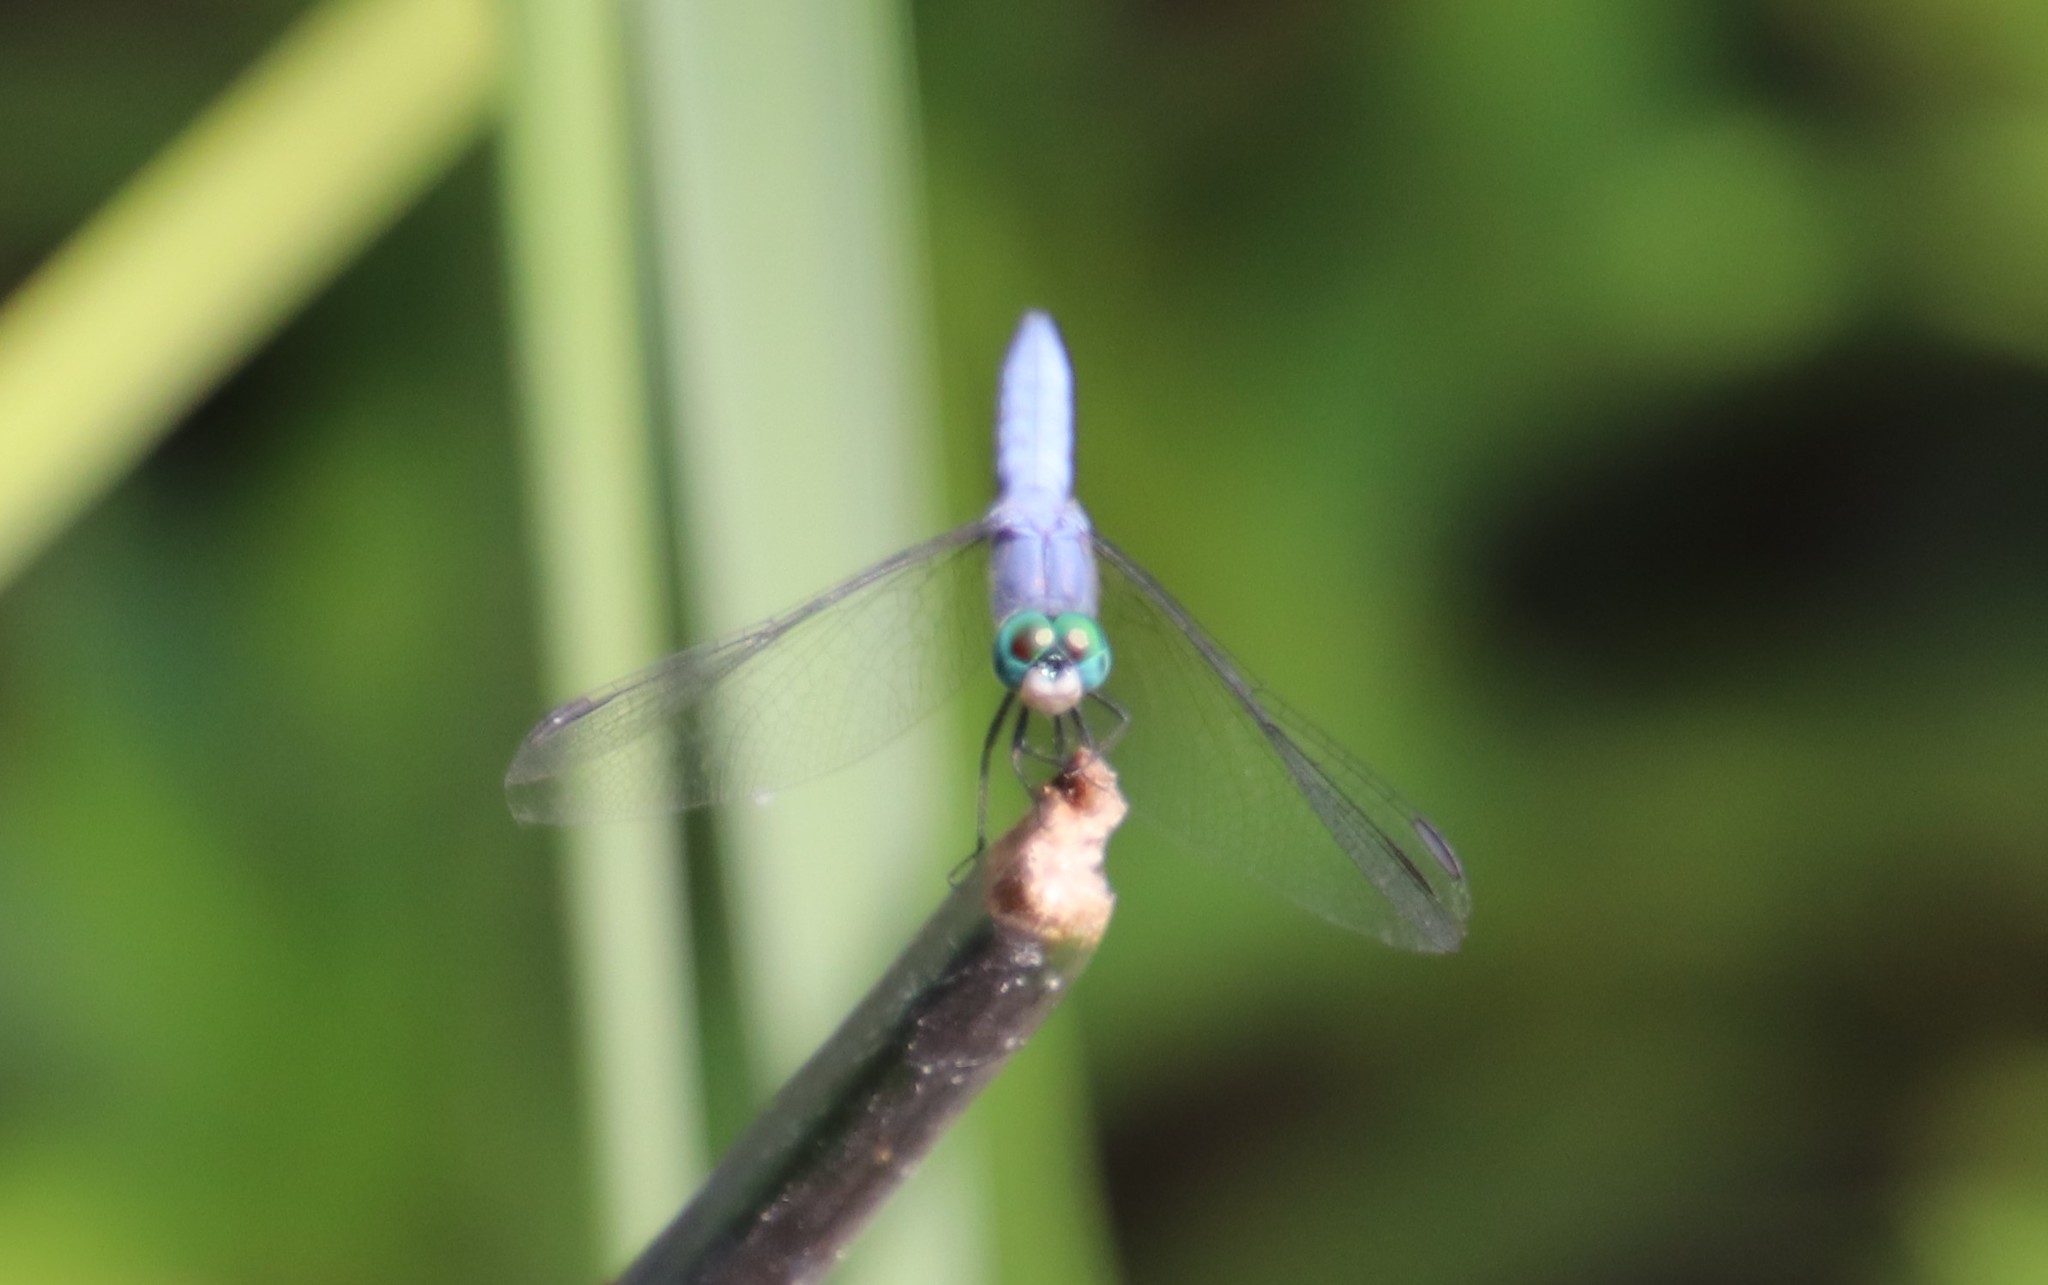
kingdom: Animalia
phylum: Arthropoda
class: Insecta
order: Odonata
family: Libellulidae
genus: Pachydiplax
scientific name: Pachydiplax longipennis
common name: Blue dasher
